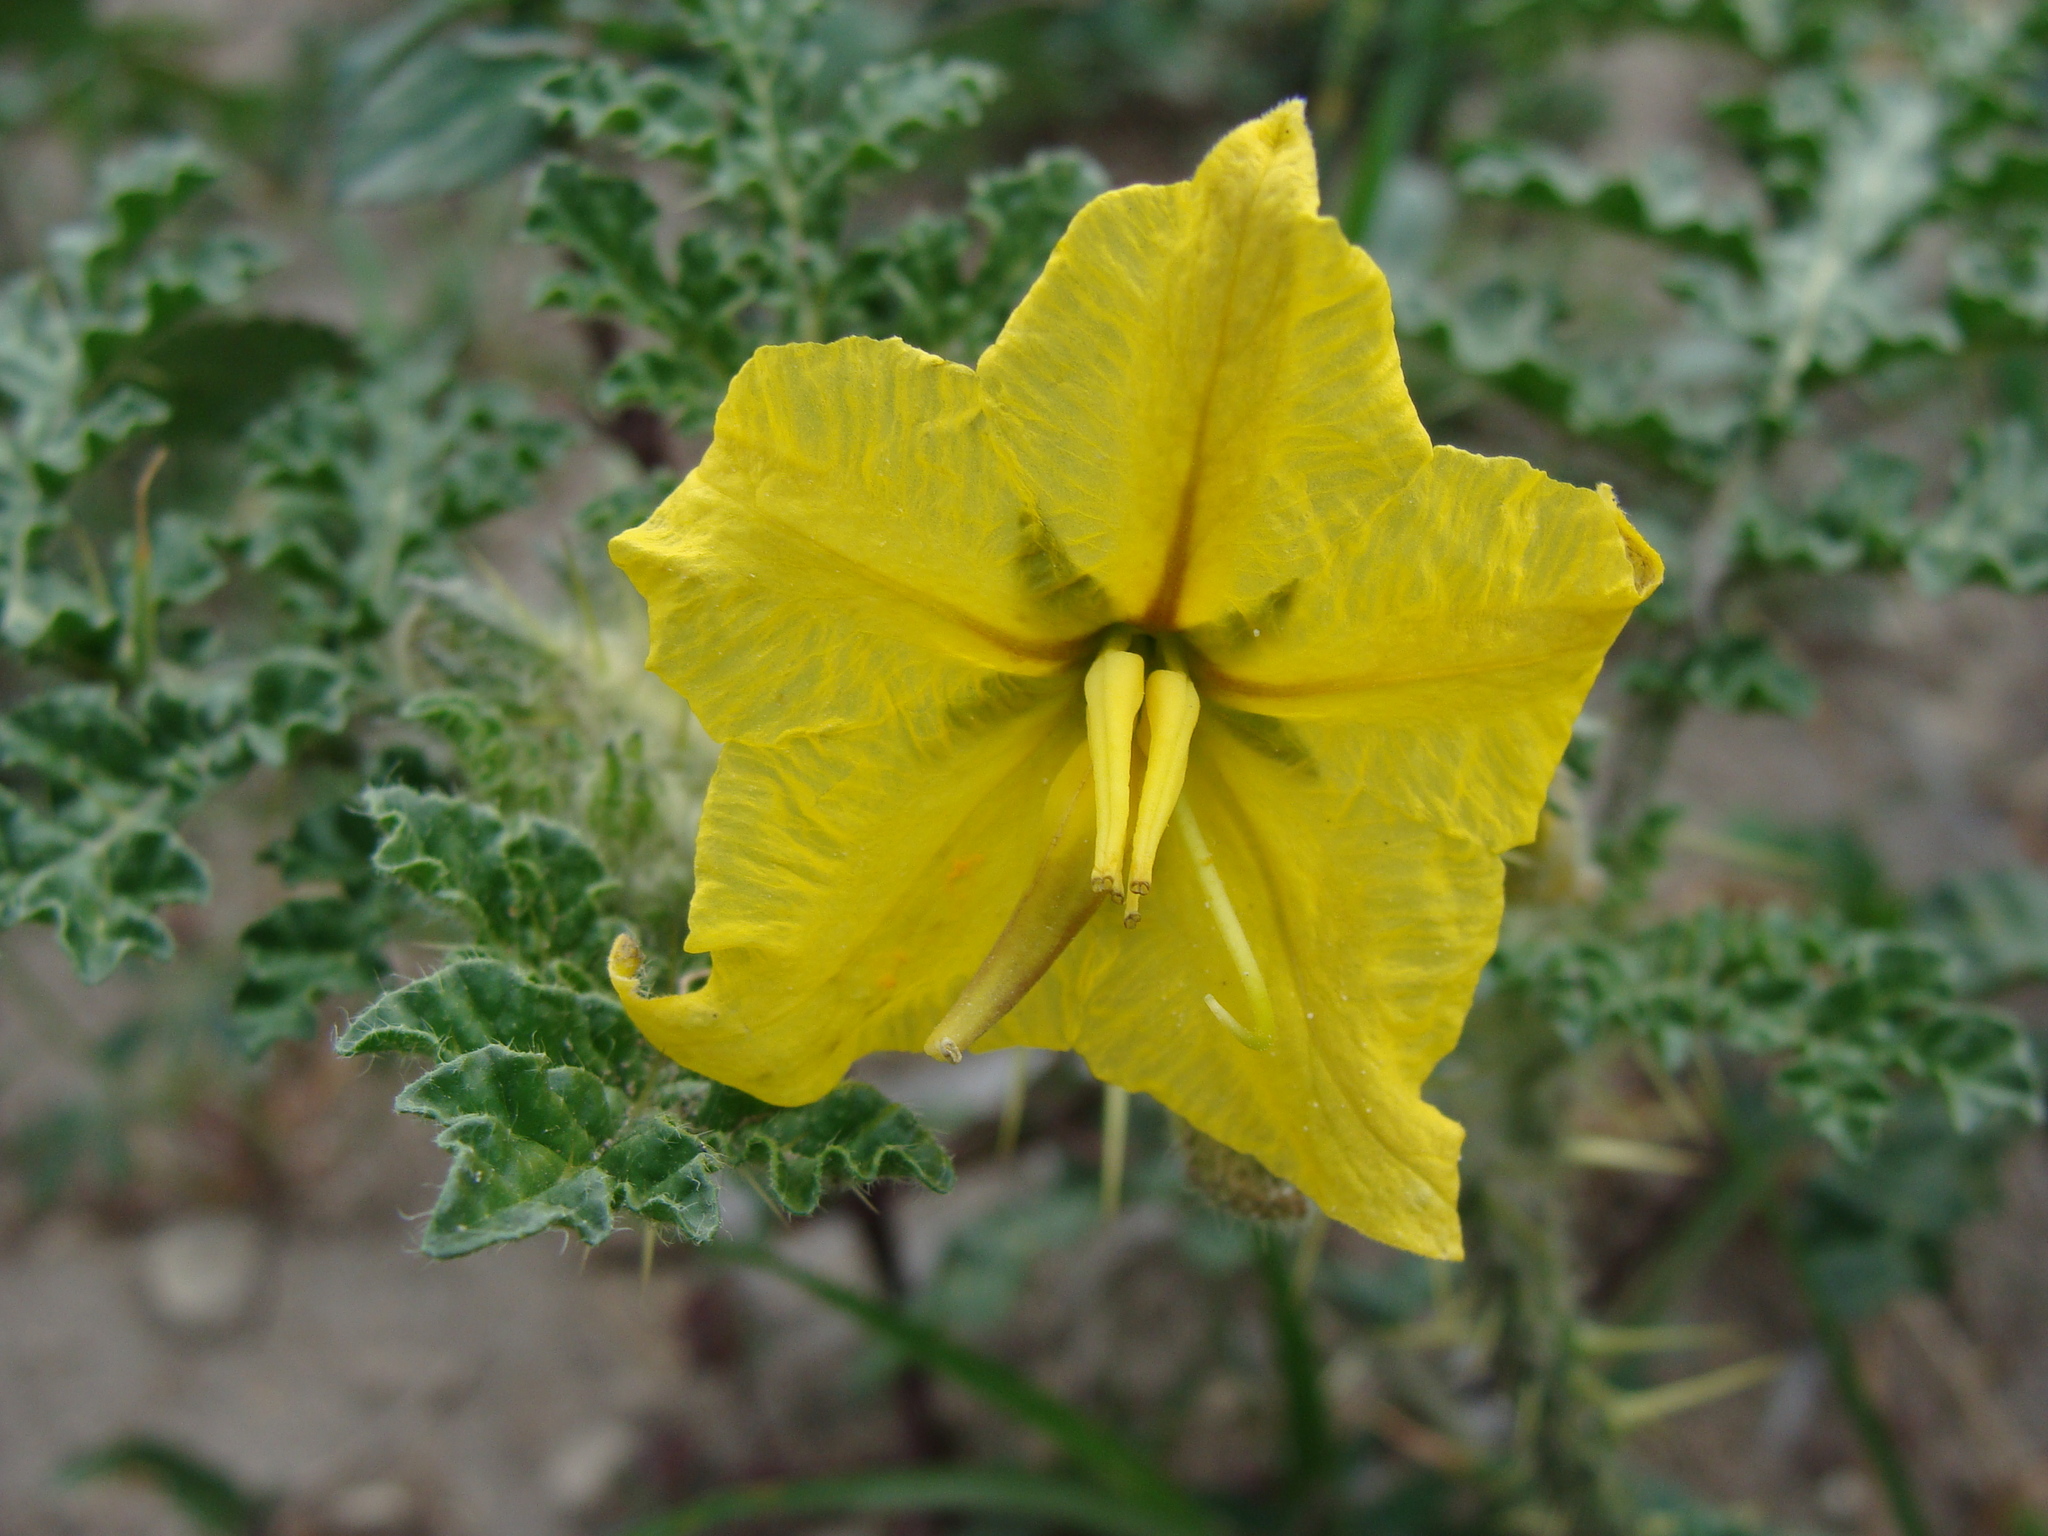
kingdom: Plantae
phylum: Tracheophyta
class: Magnoliopsida
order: Solanales
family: Solanaceae
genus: Solanum
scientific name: Solanum angustifolium
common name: Buffalobur nightshade
